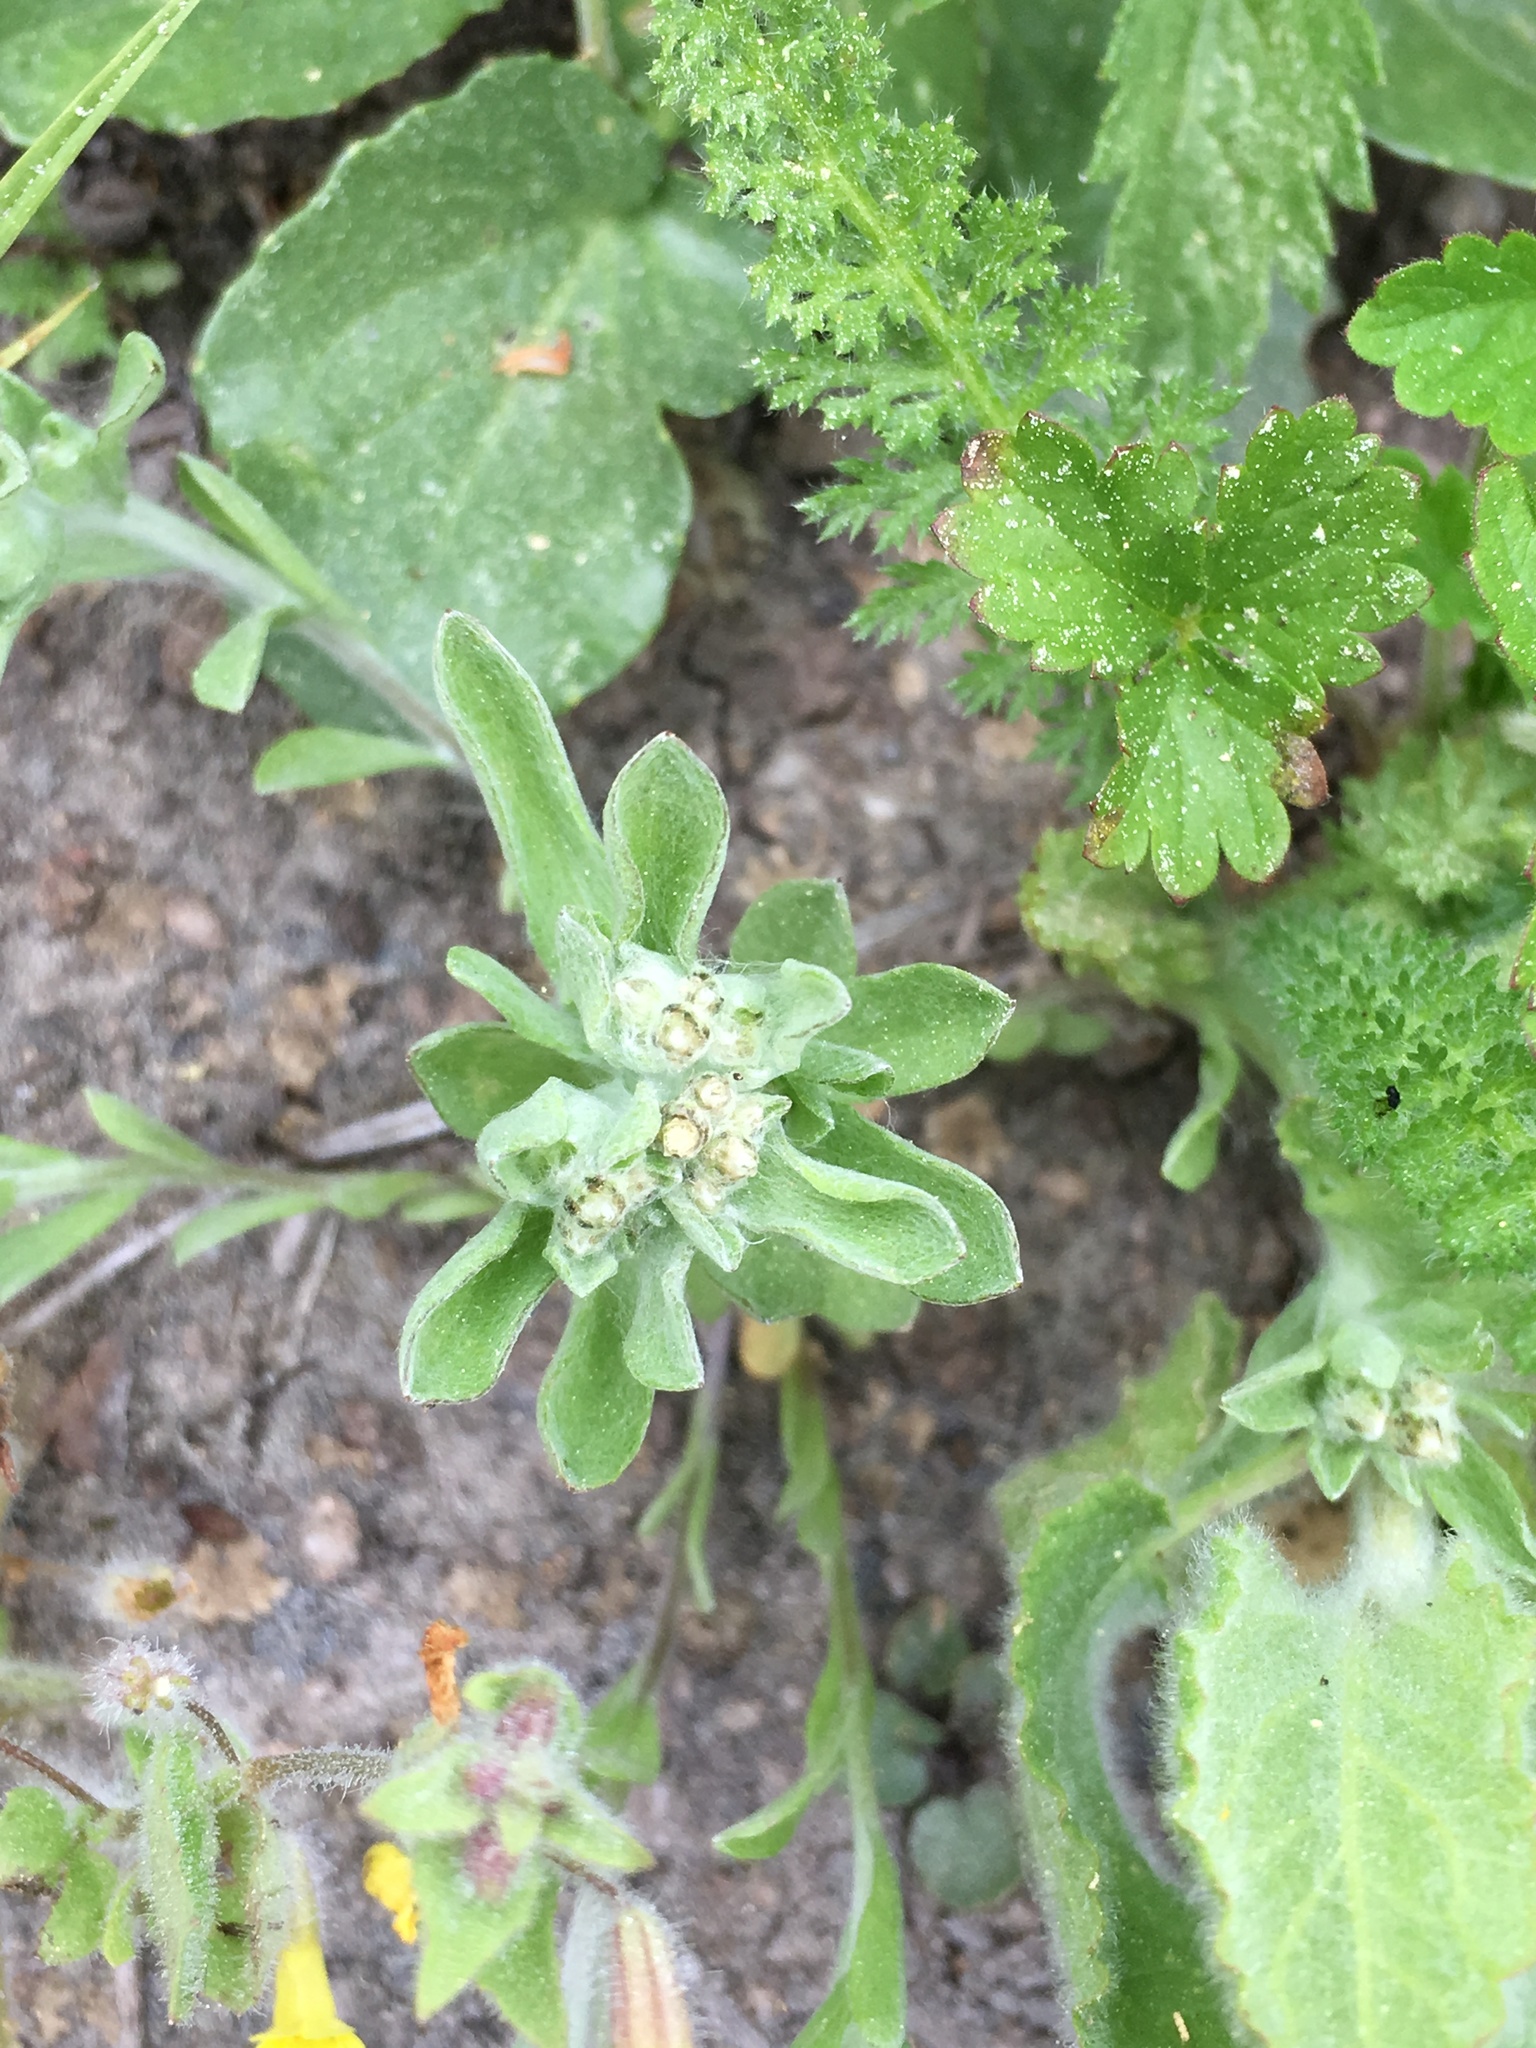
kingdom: Plantae
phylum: Tracheophyta
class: Magnoliopsida
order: Asterales
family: Asteraceae
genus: Gnaphalium
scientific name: Gnaphalium palustre
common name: Western marsh cudweed
